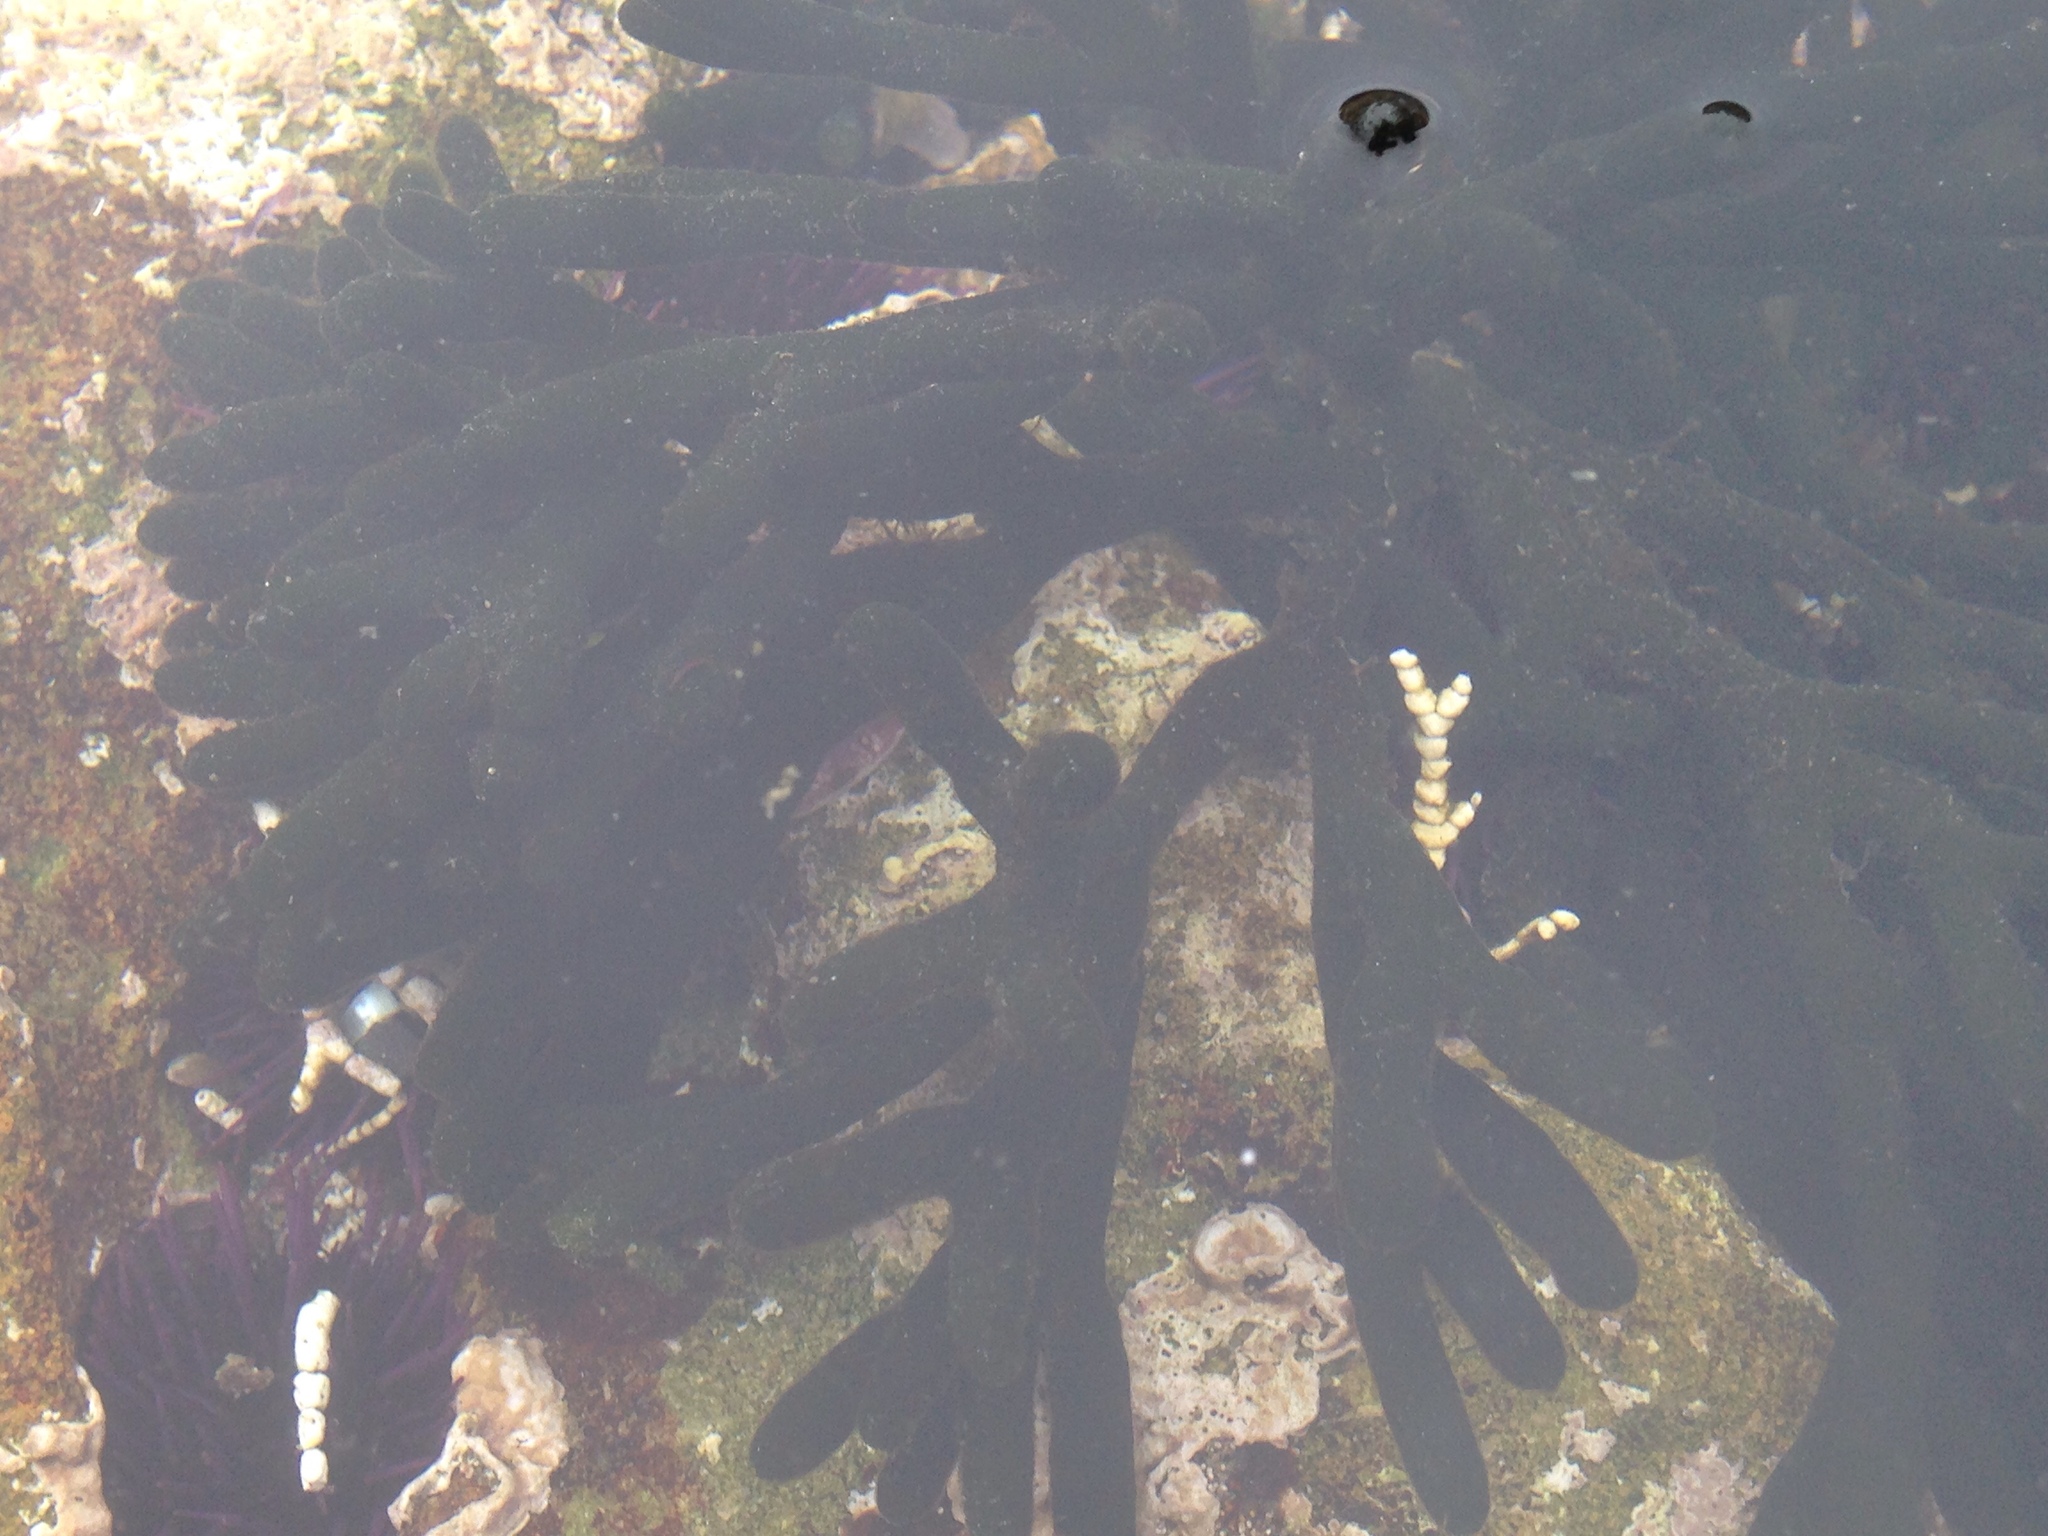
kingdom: Plantae
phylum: Chlorophyta
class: Ulvophyceae
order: Bryopsidales
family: Codiaceae
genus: Codium
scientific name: Codium fragile
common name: Dead man's fingers
